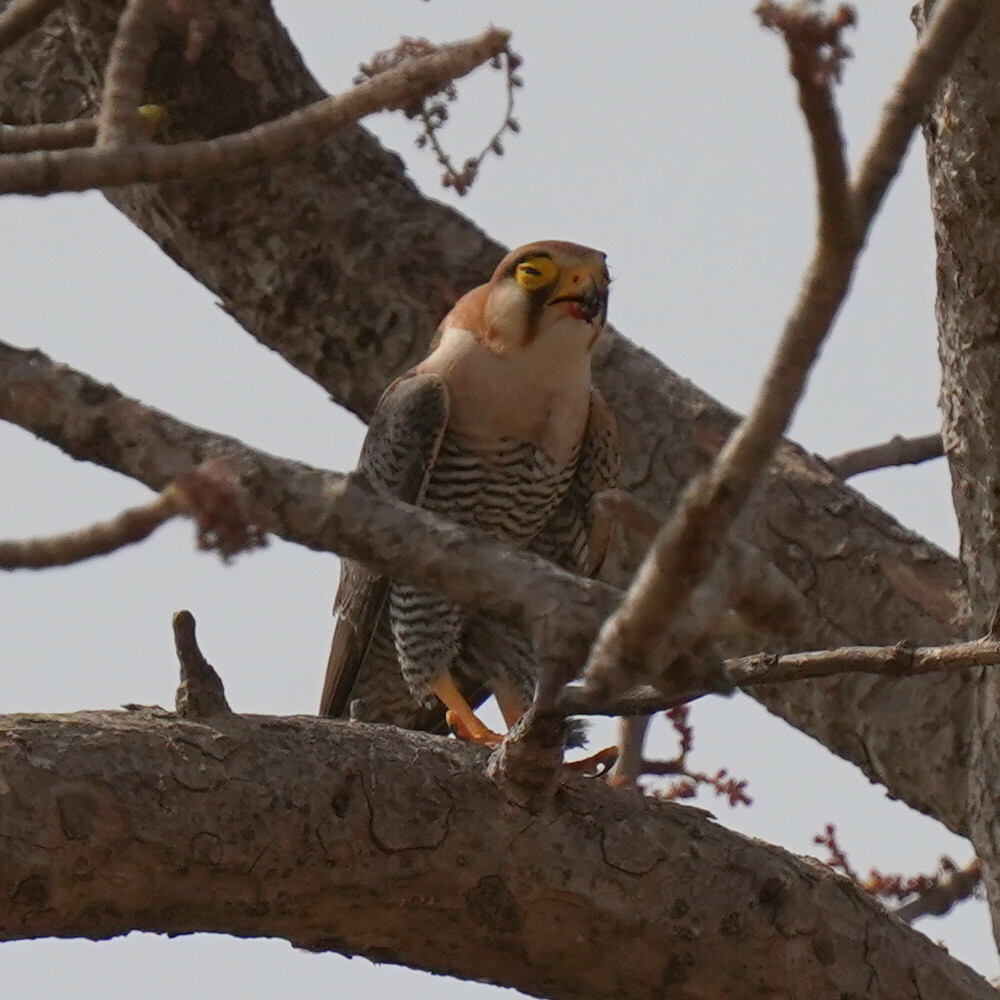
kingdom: Animalia
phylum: Chordata
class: Aves
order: Falconiformes
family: Falconidae
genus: Falco
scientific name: Falco chicquera
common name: Red-necked falcon
